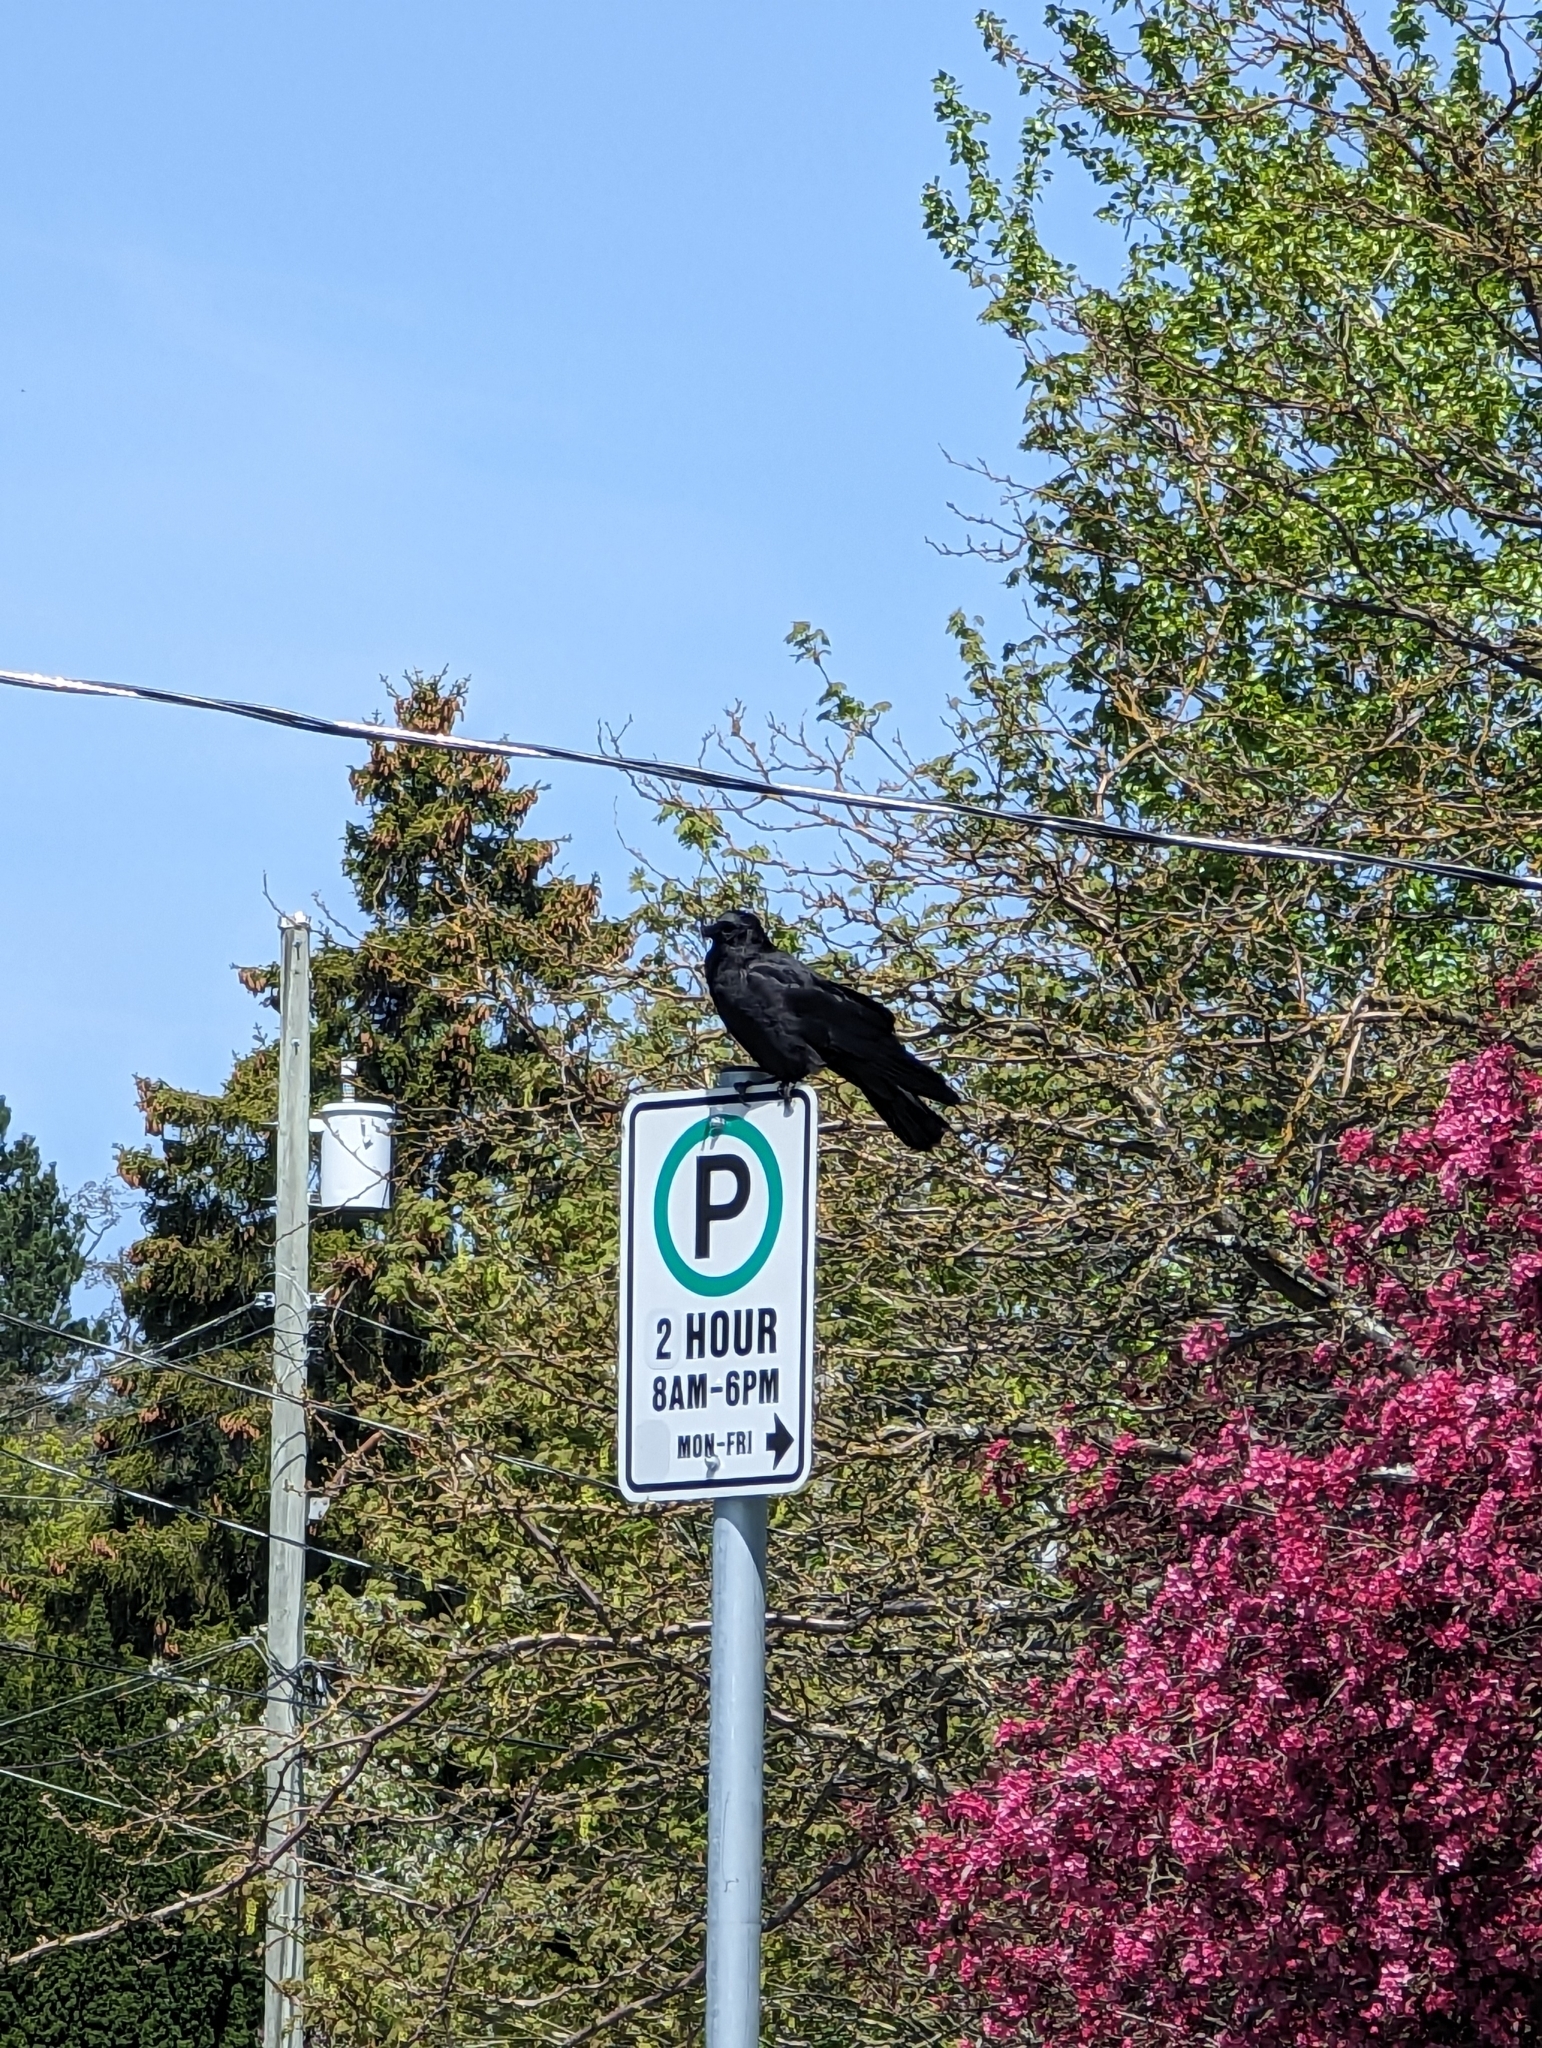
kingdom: Animalia
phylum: Chordata
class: Aves
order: Passeriformes
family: Corvidae
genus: Corvus
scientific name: Corvus brachyrhynchos
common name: American crow
